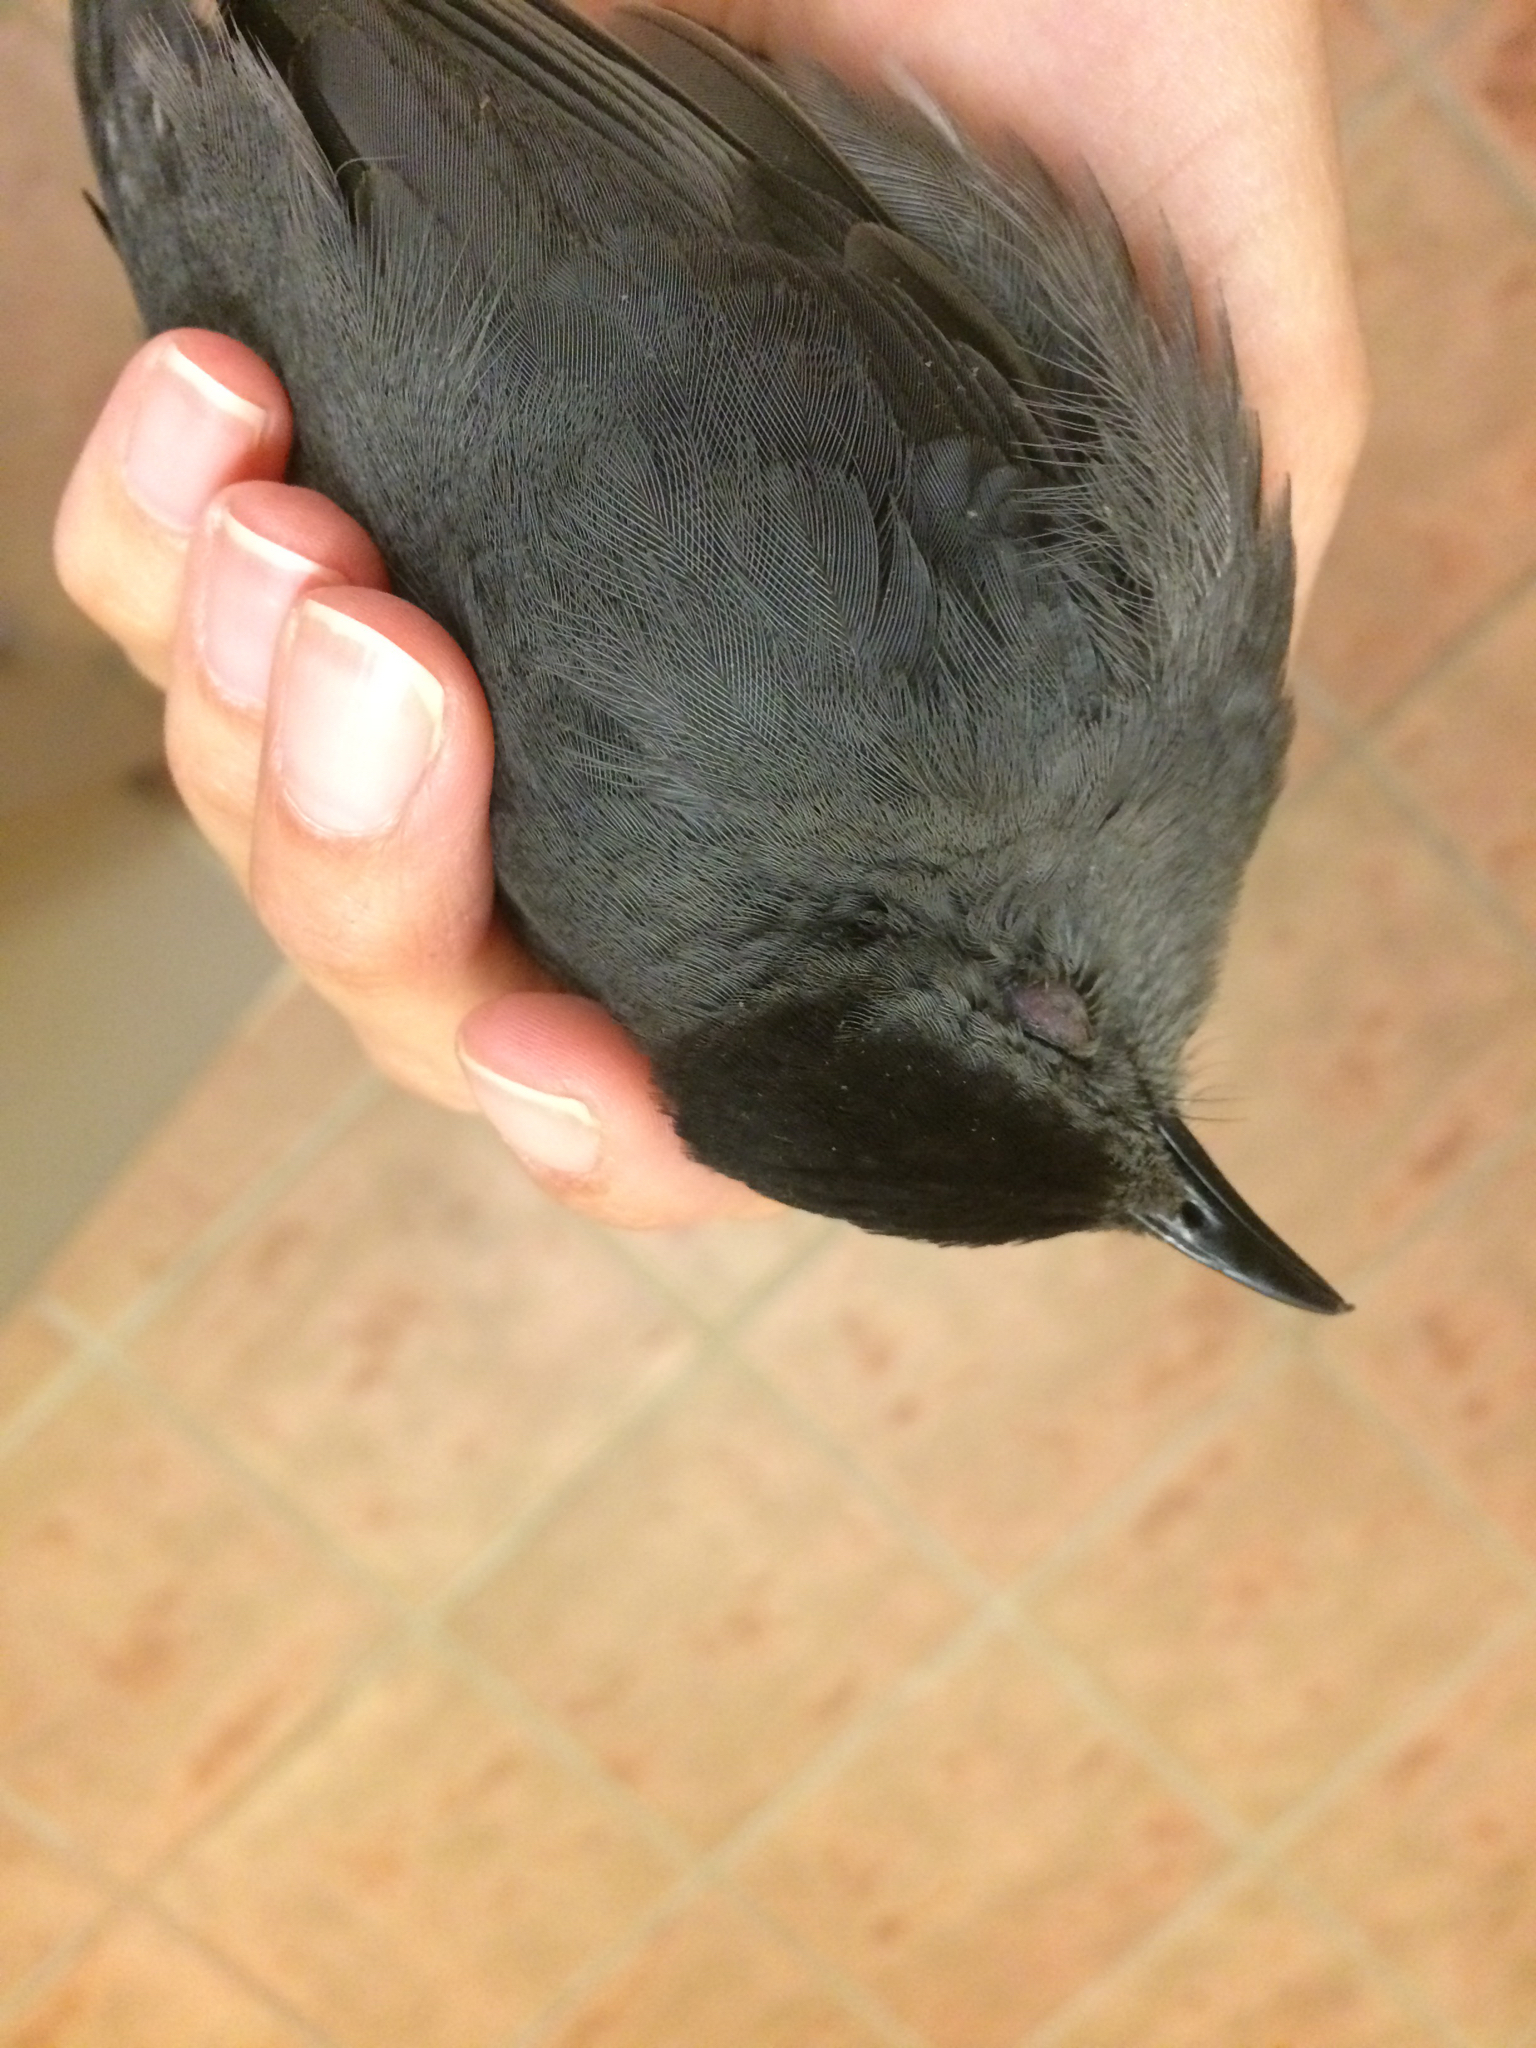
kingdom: Animalia
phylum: Chordata
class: Aves
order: Passeriformes
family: Mimidae
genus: Dumetella
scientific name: Dumetella carolinensis
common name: Gray catbird
